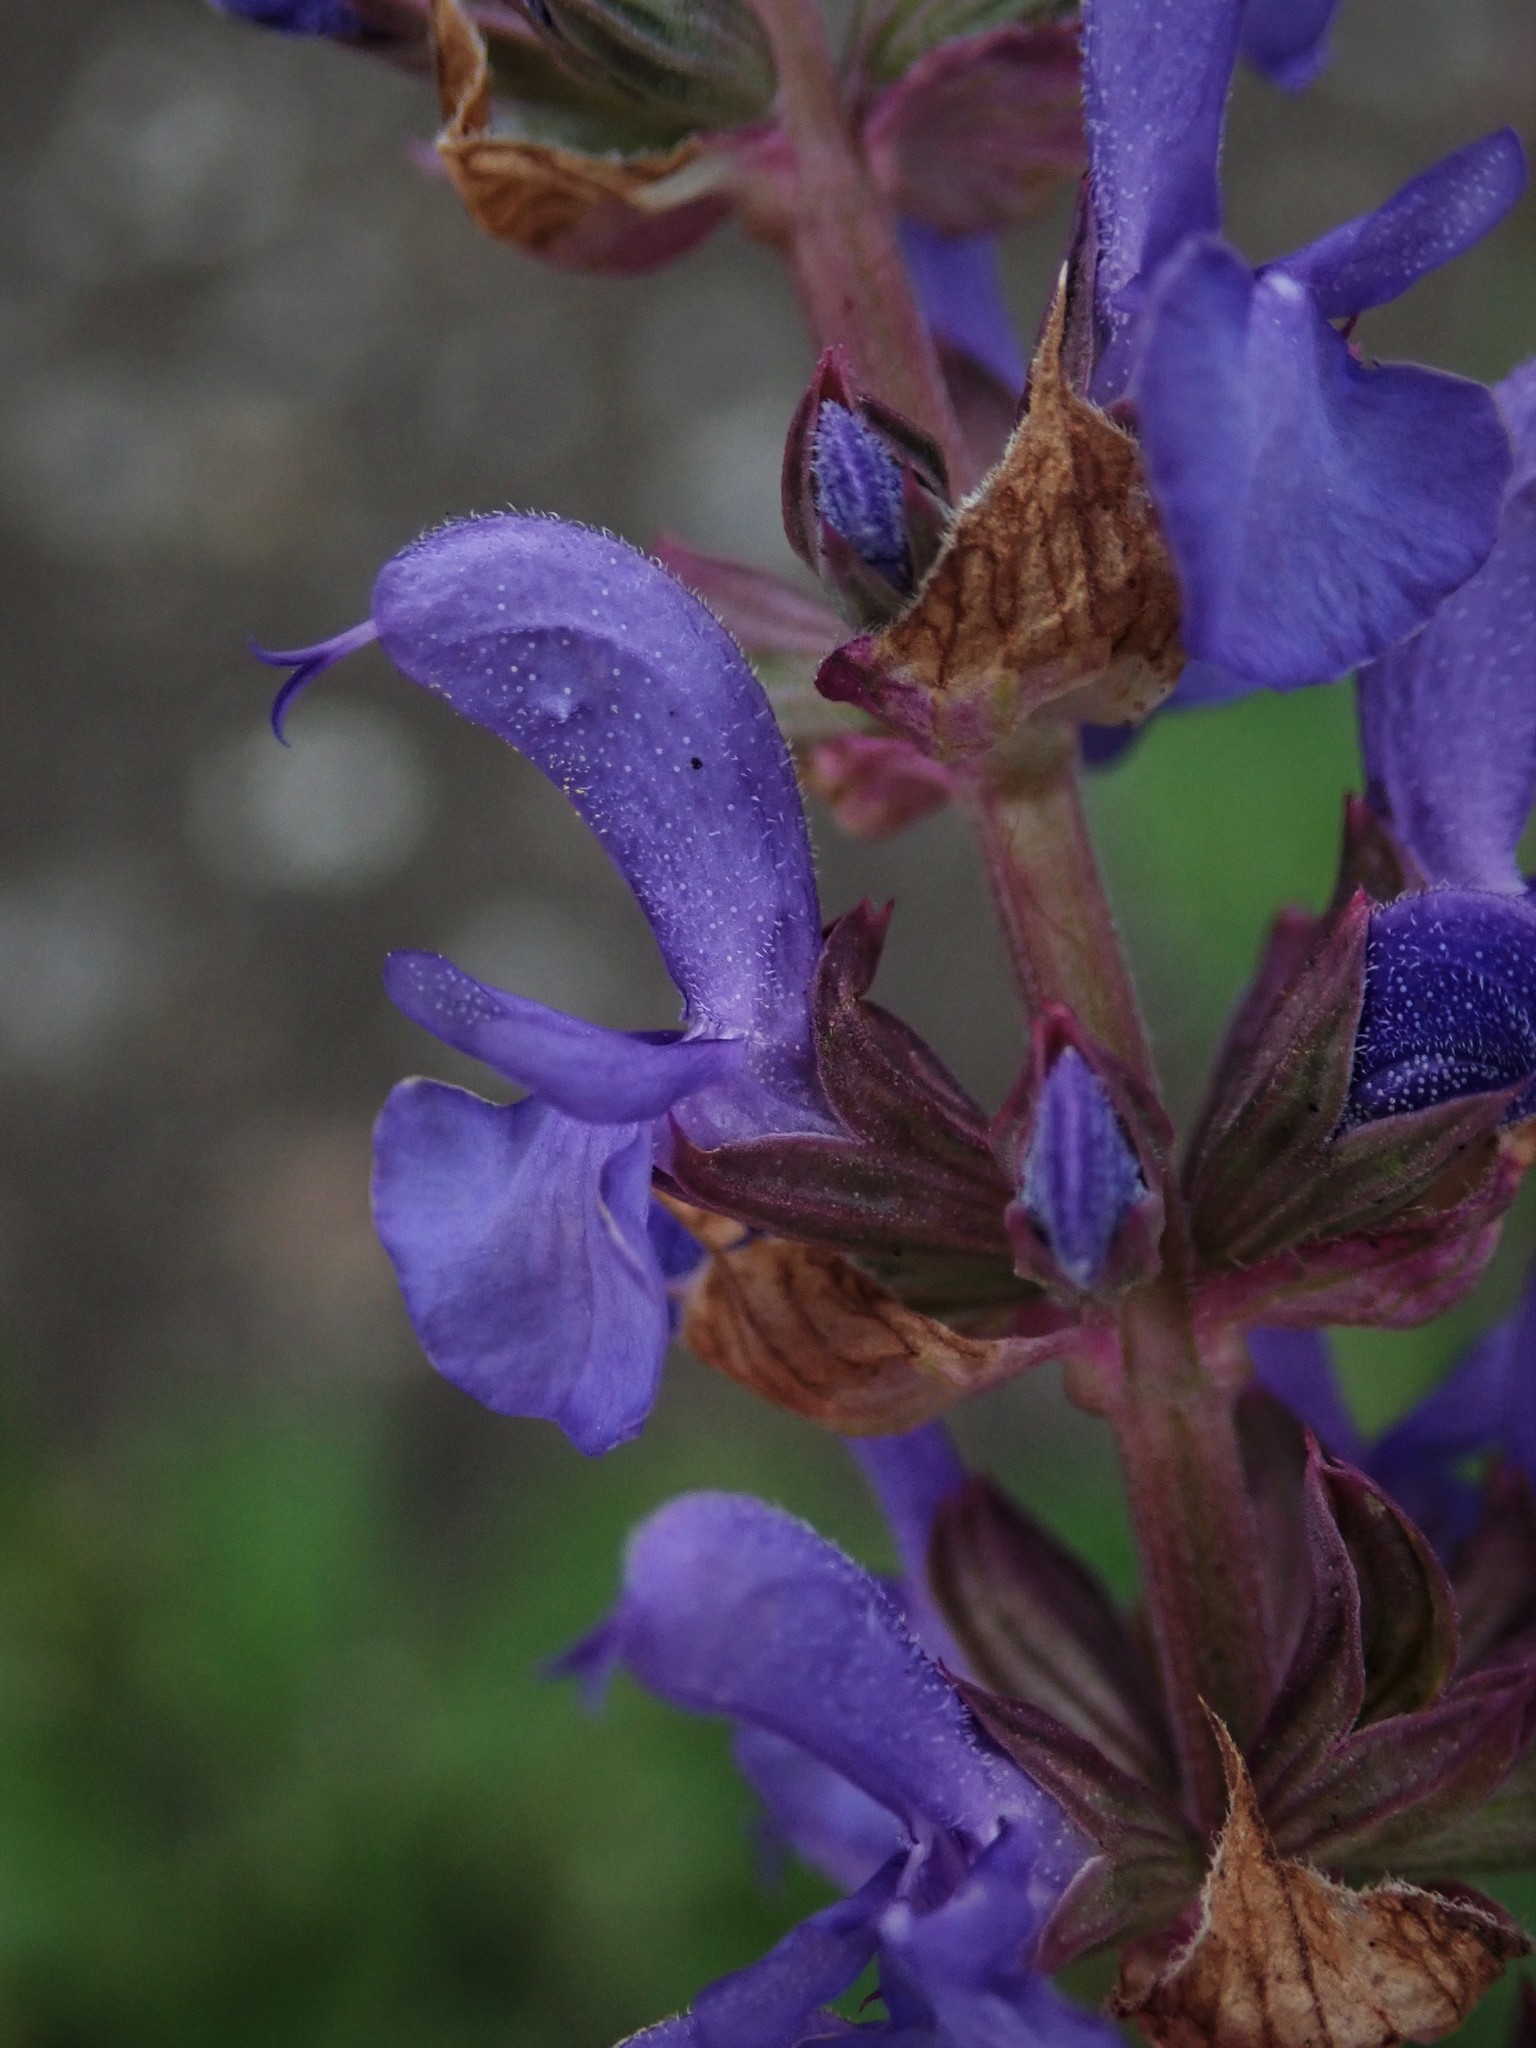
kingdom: Plantae
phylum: Tracheophyta
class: Magnoliopsida
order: Lamiales
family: Lamiaceae
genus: Salvia
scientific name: Salvia nemorosa
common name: Balkan clary
